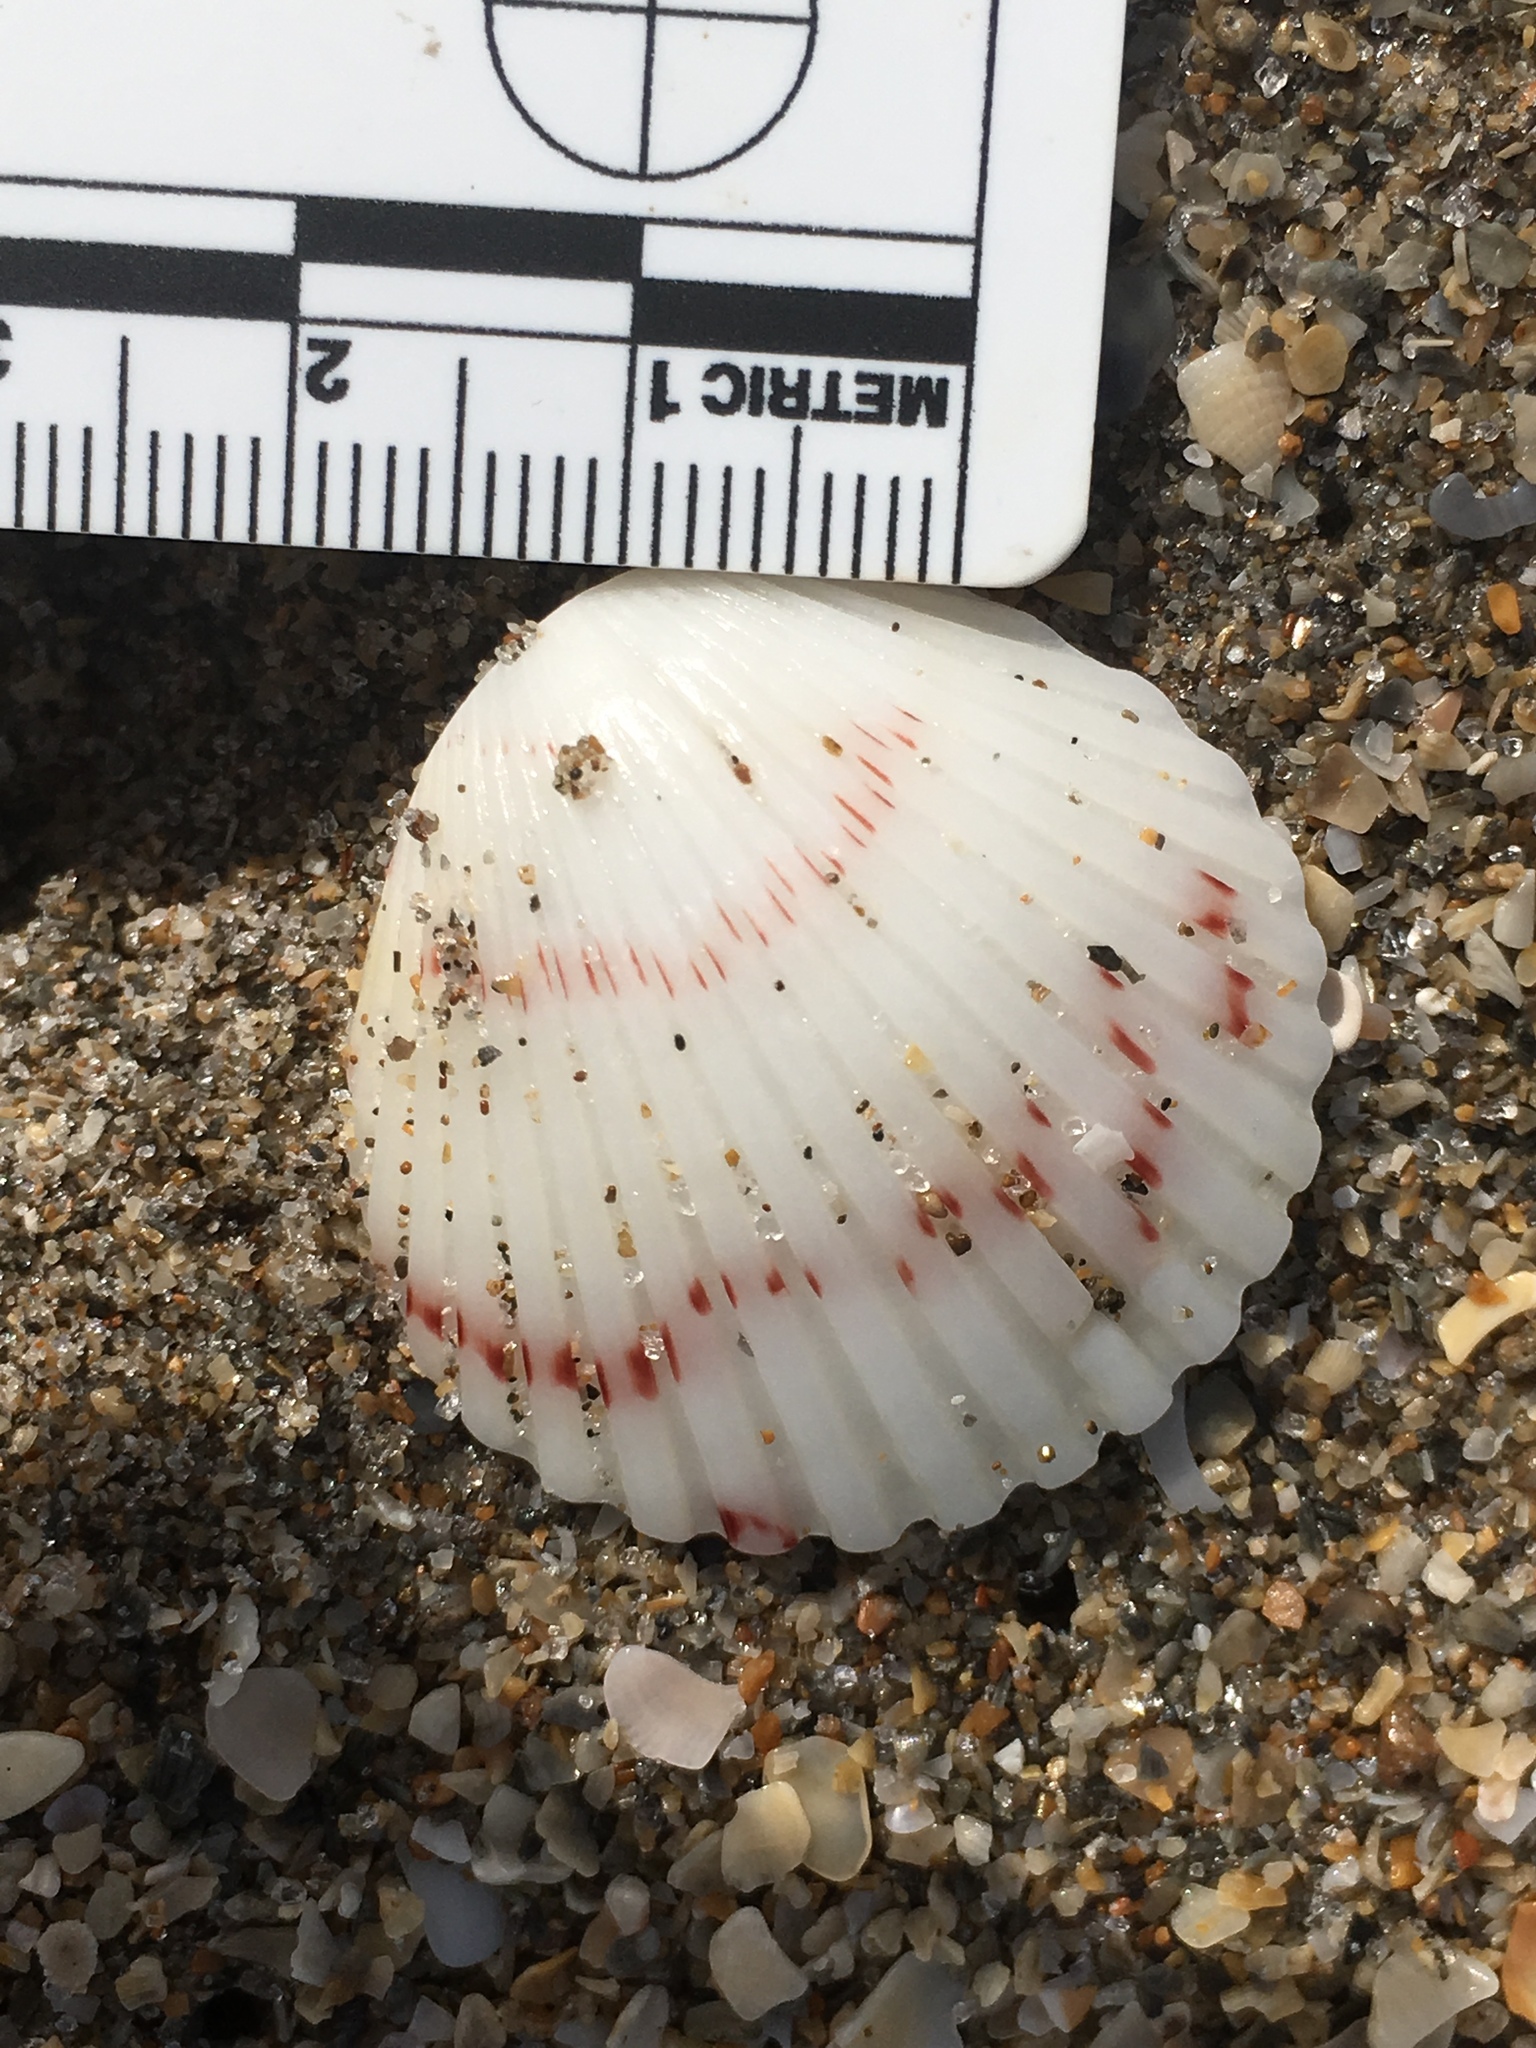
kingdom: Animalia
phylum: Mollusca
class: Bivalvia
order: Pectinida
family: Pectinidae
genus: Argopecten
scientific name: Argopecten gibbus
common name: Atlantic calico scallop
